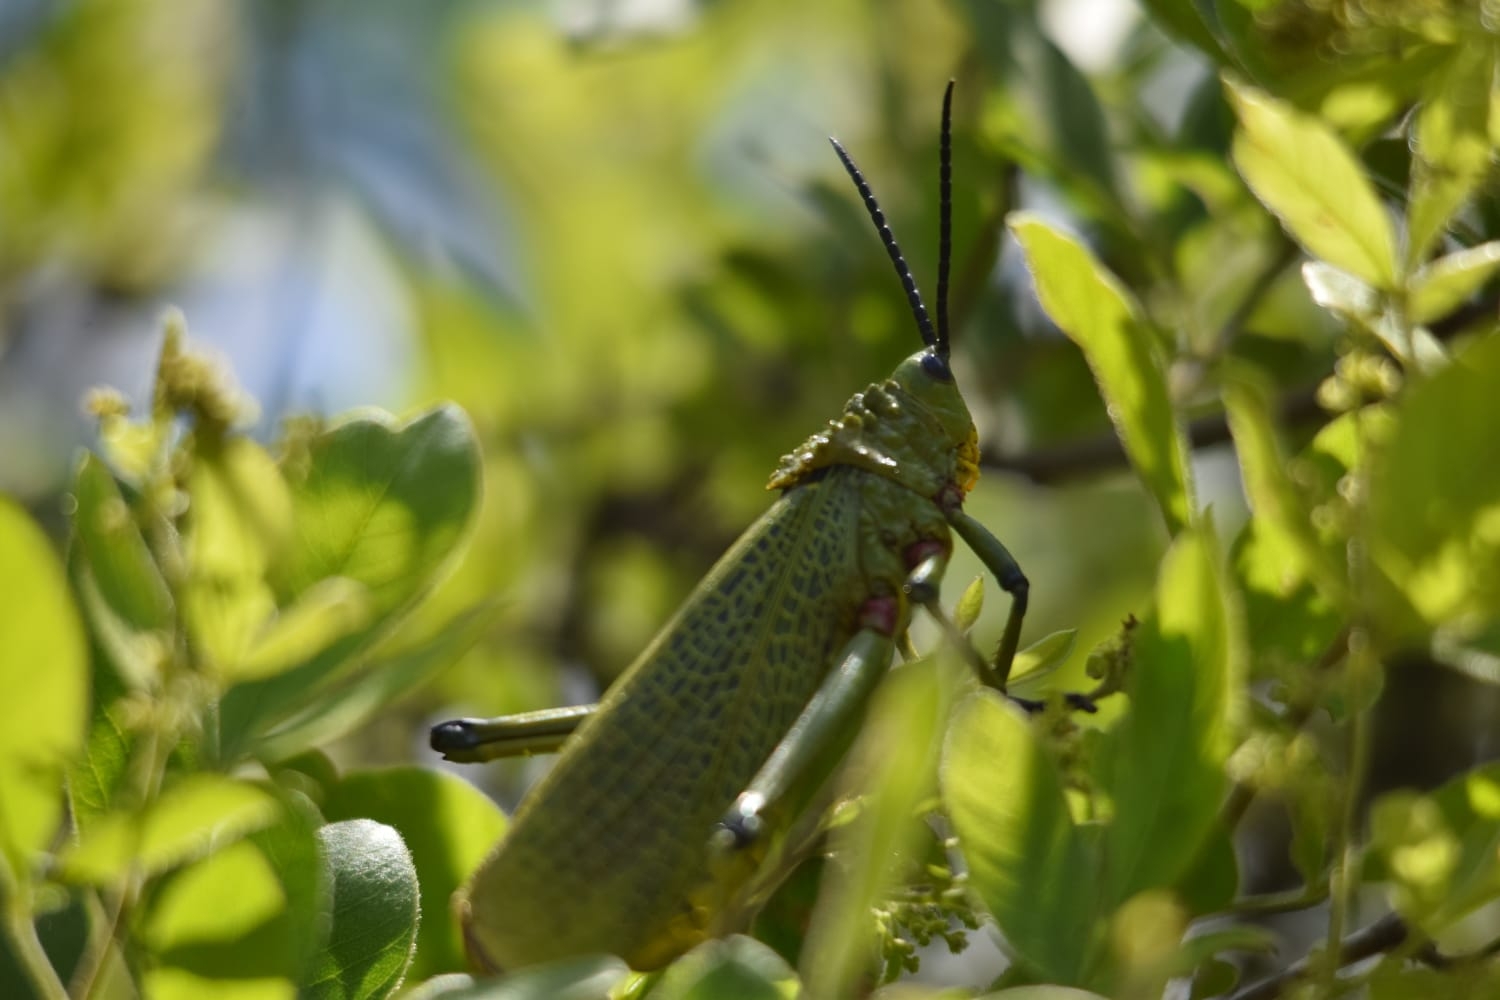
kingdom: Animalia
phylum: Arthropoda
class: Insecta
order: Orthoptera
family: Pyrgomorphidae
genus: Phymateus
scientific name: Phymateus viridipes
